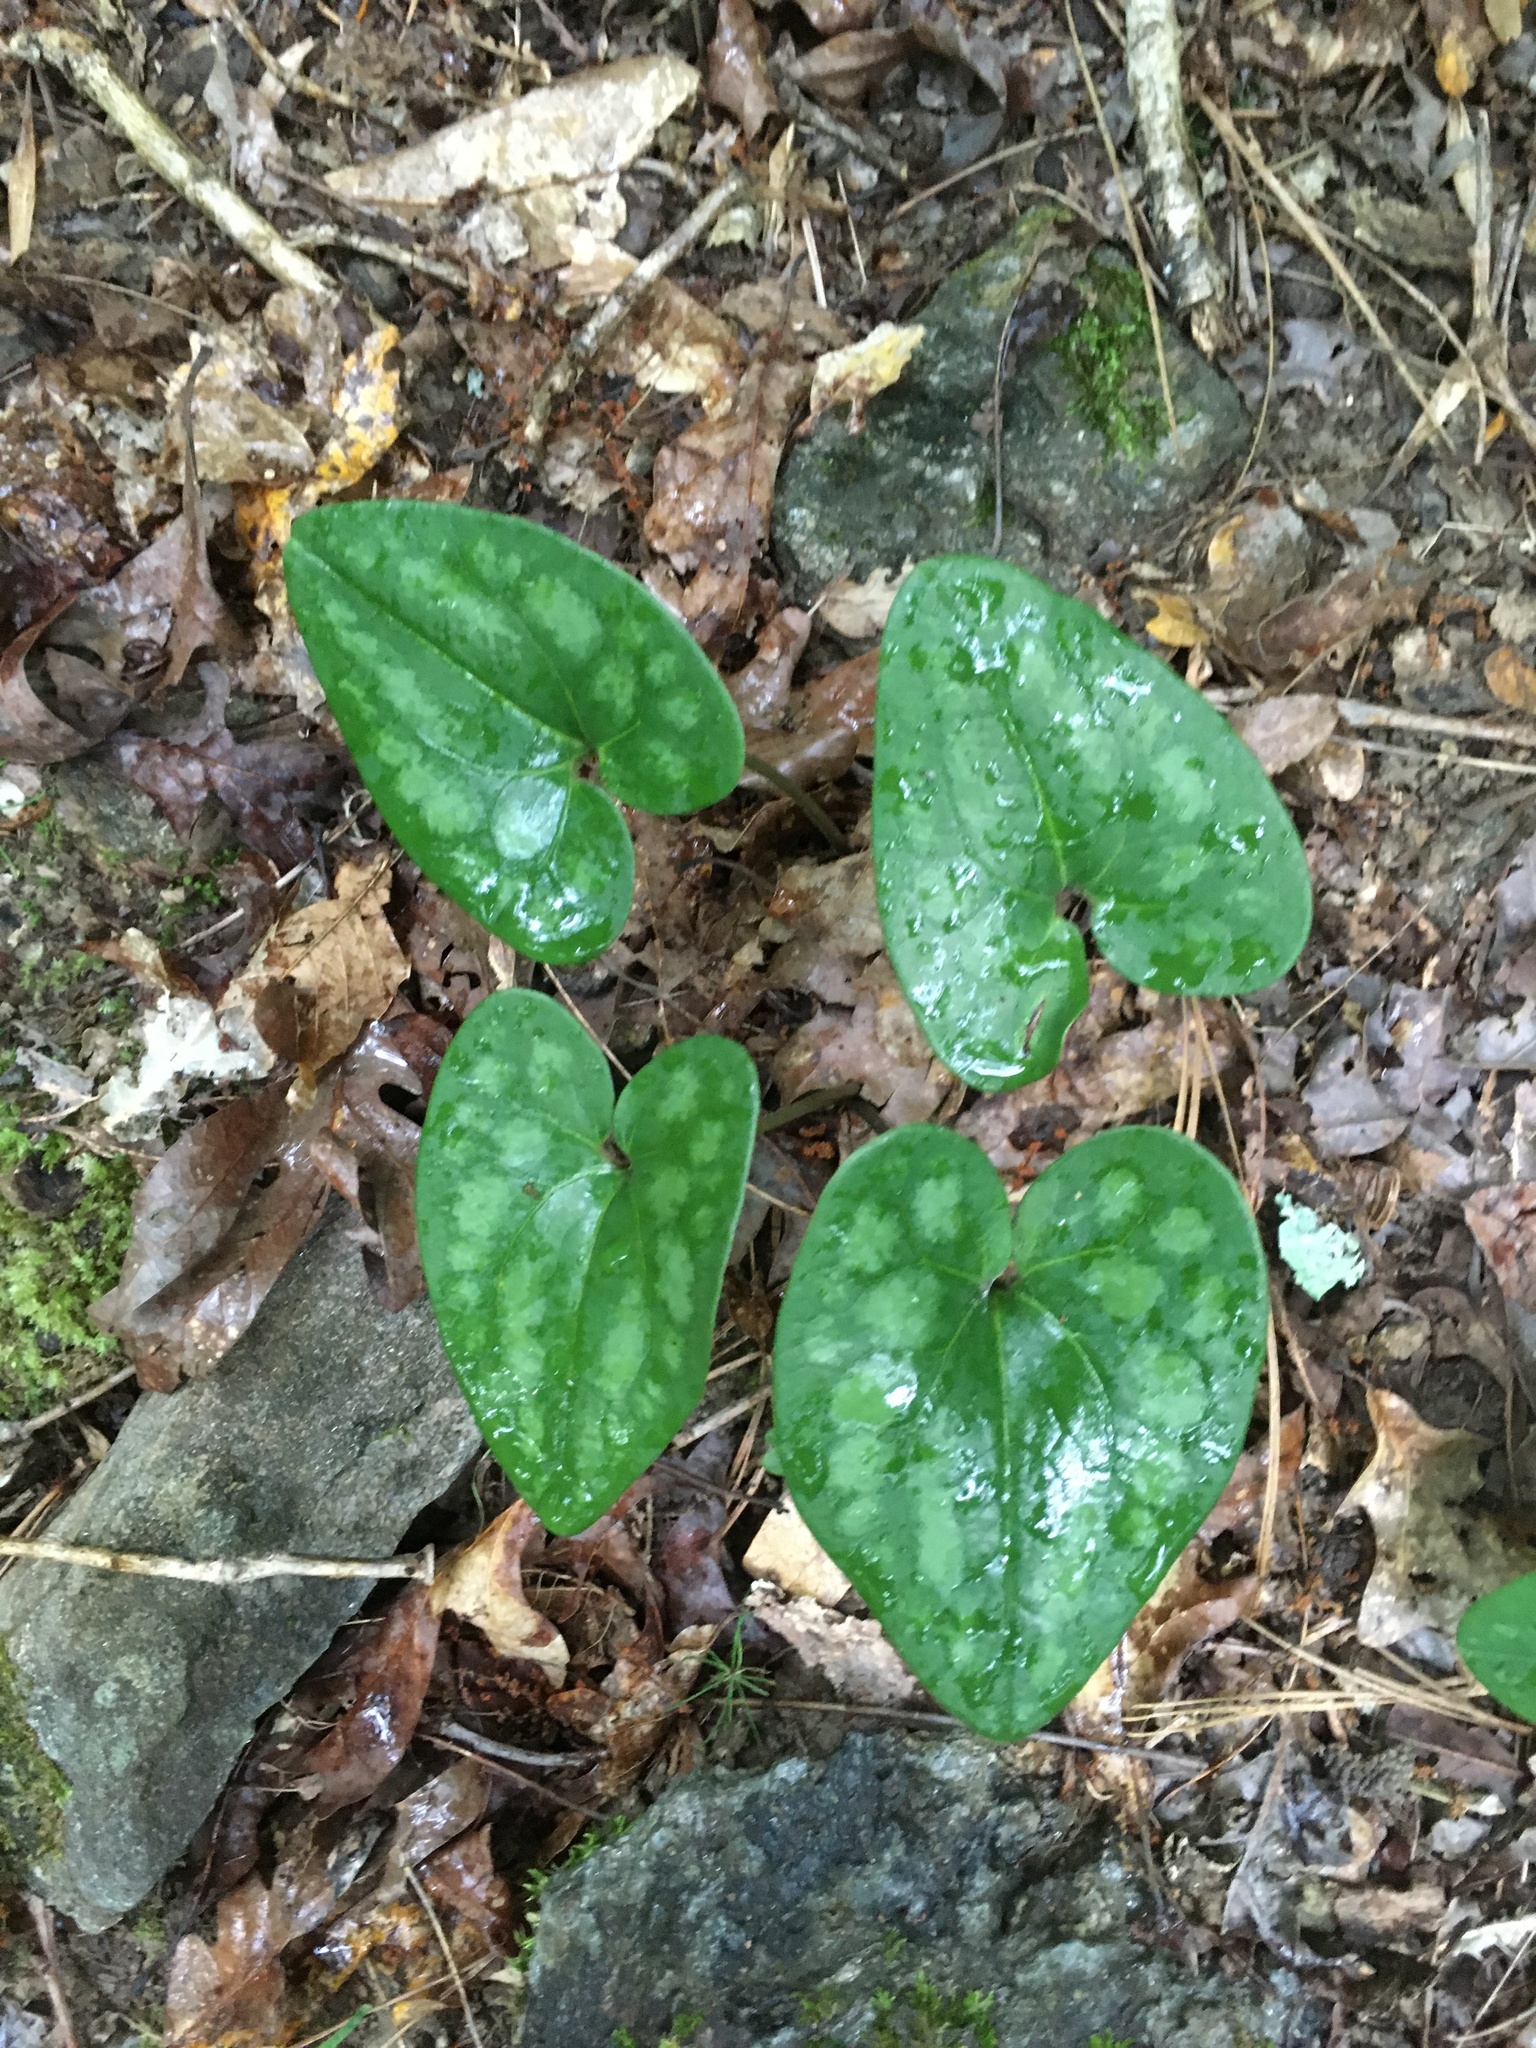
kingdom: Plantae
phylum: Tracheophyta
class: Magnoliopsida
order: Piperales
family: Aristolochiaceae
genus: Hexastylis
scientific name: Hexastylis arifolia
